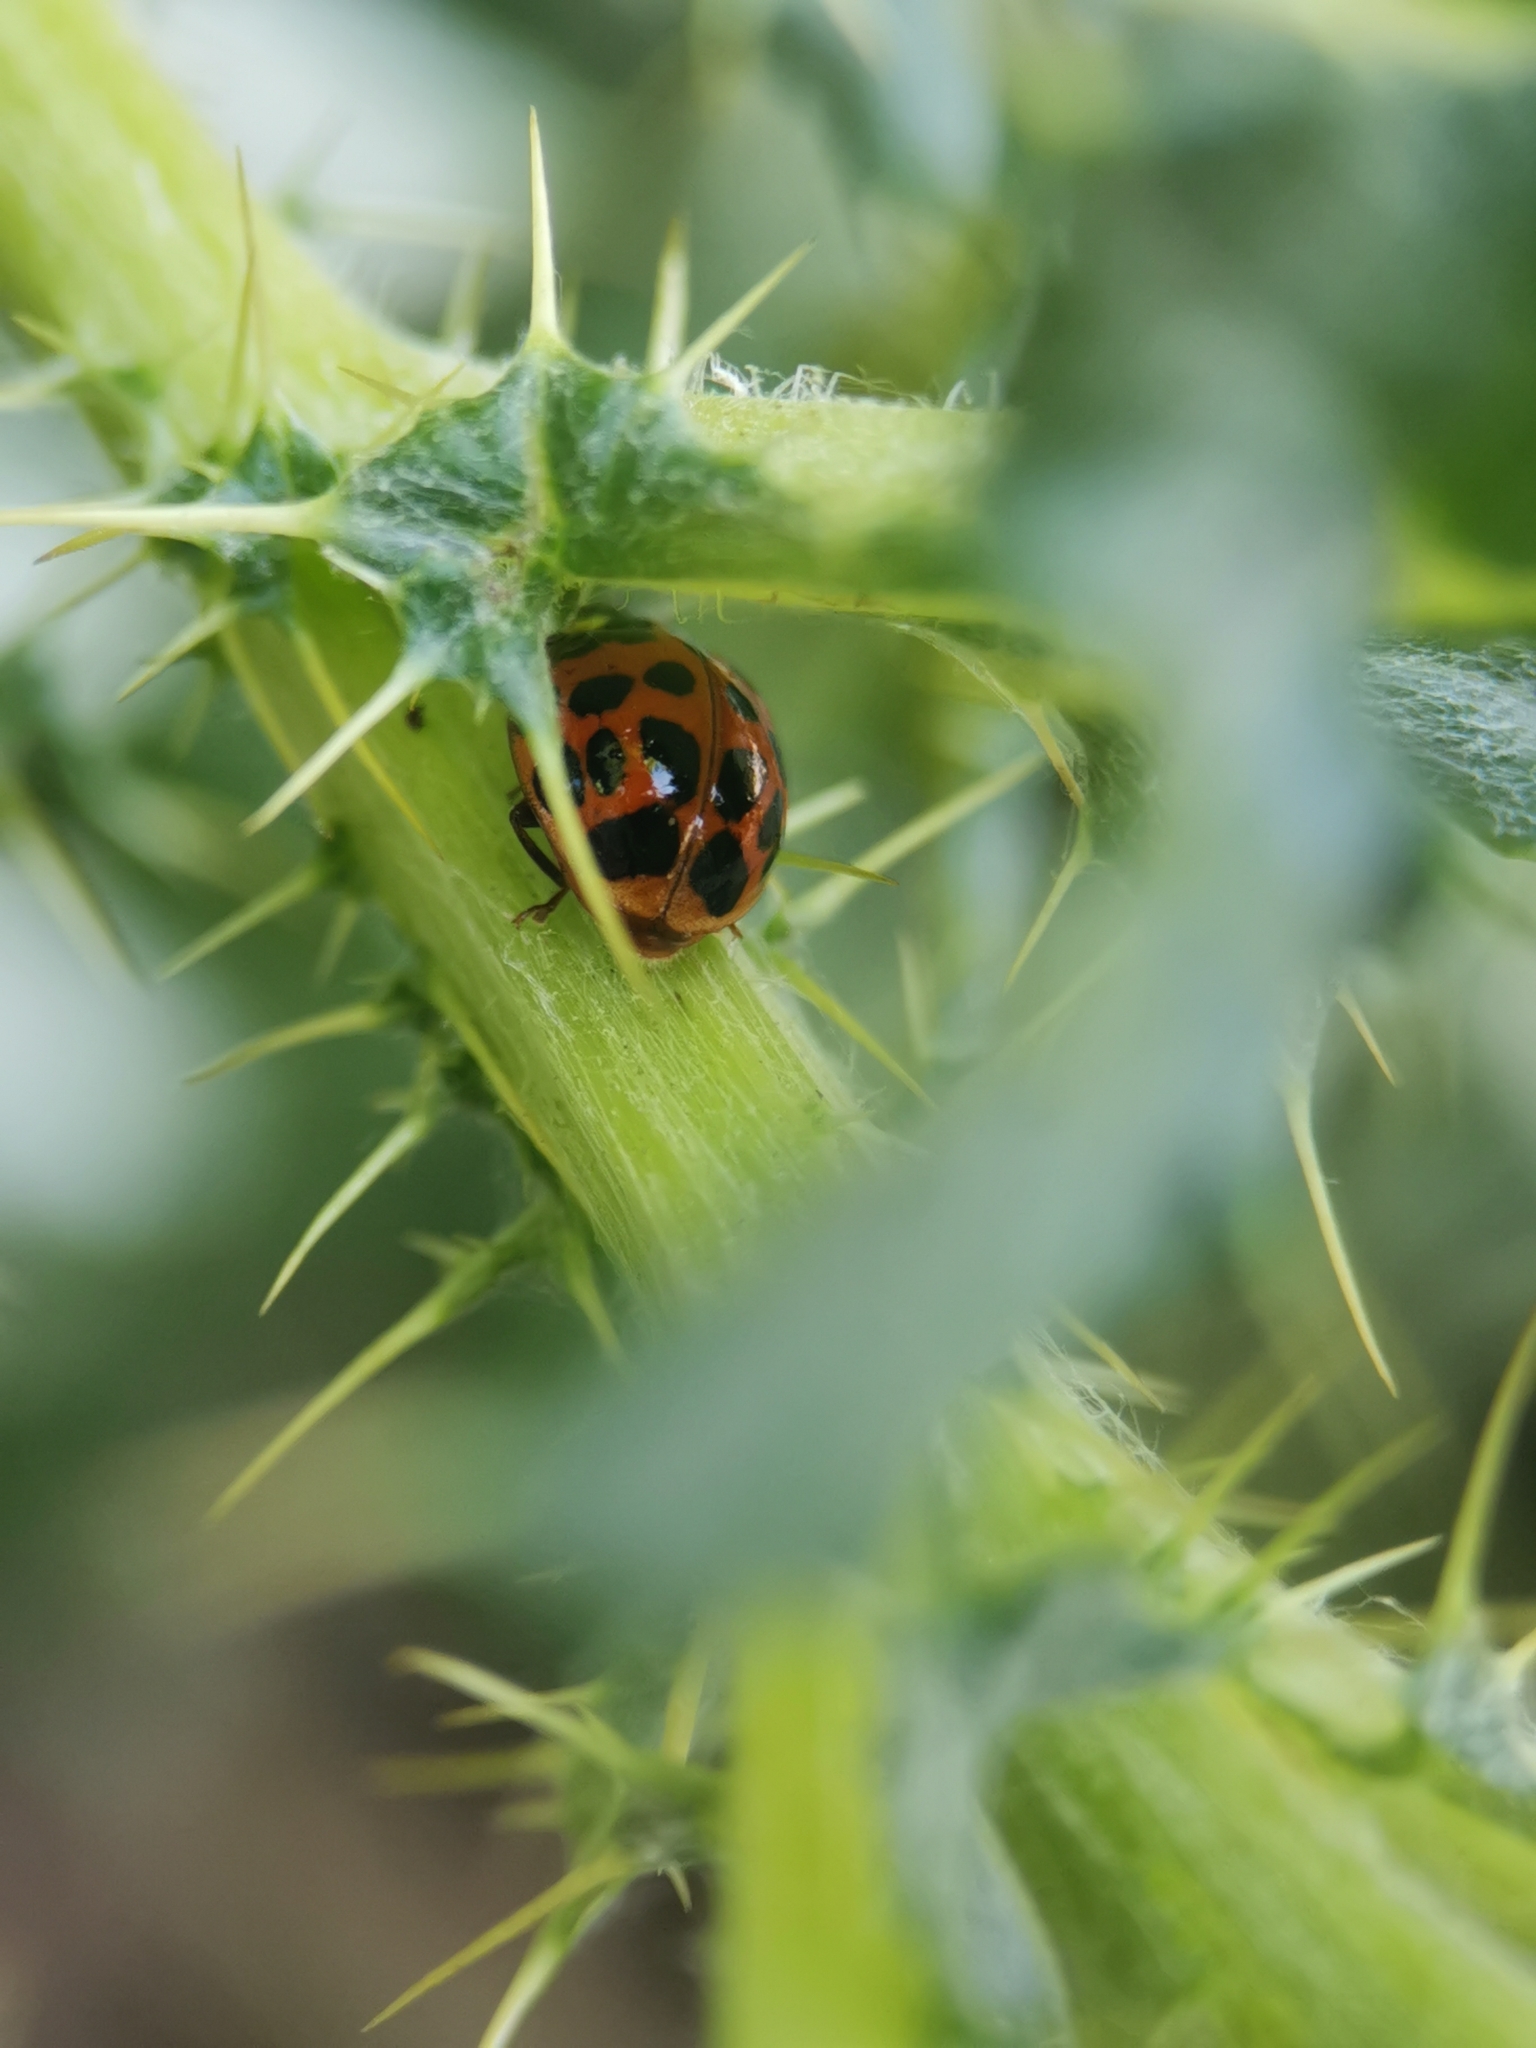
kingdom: Animalia
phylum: Arthropoda
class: Insecta
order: Coleoptera
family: Coccinellidae
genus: Harmonia
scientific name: Harmonia axyridis
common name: Harlequin ladybird
